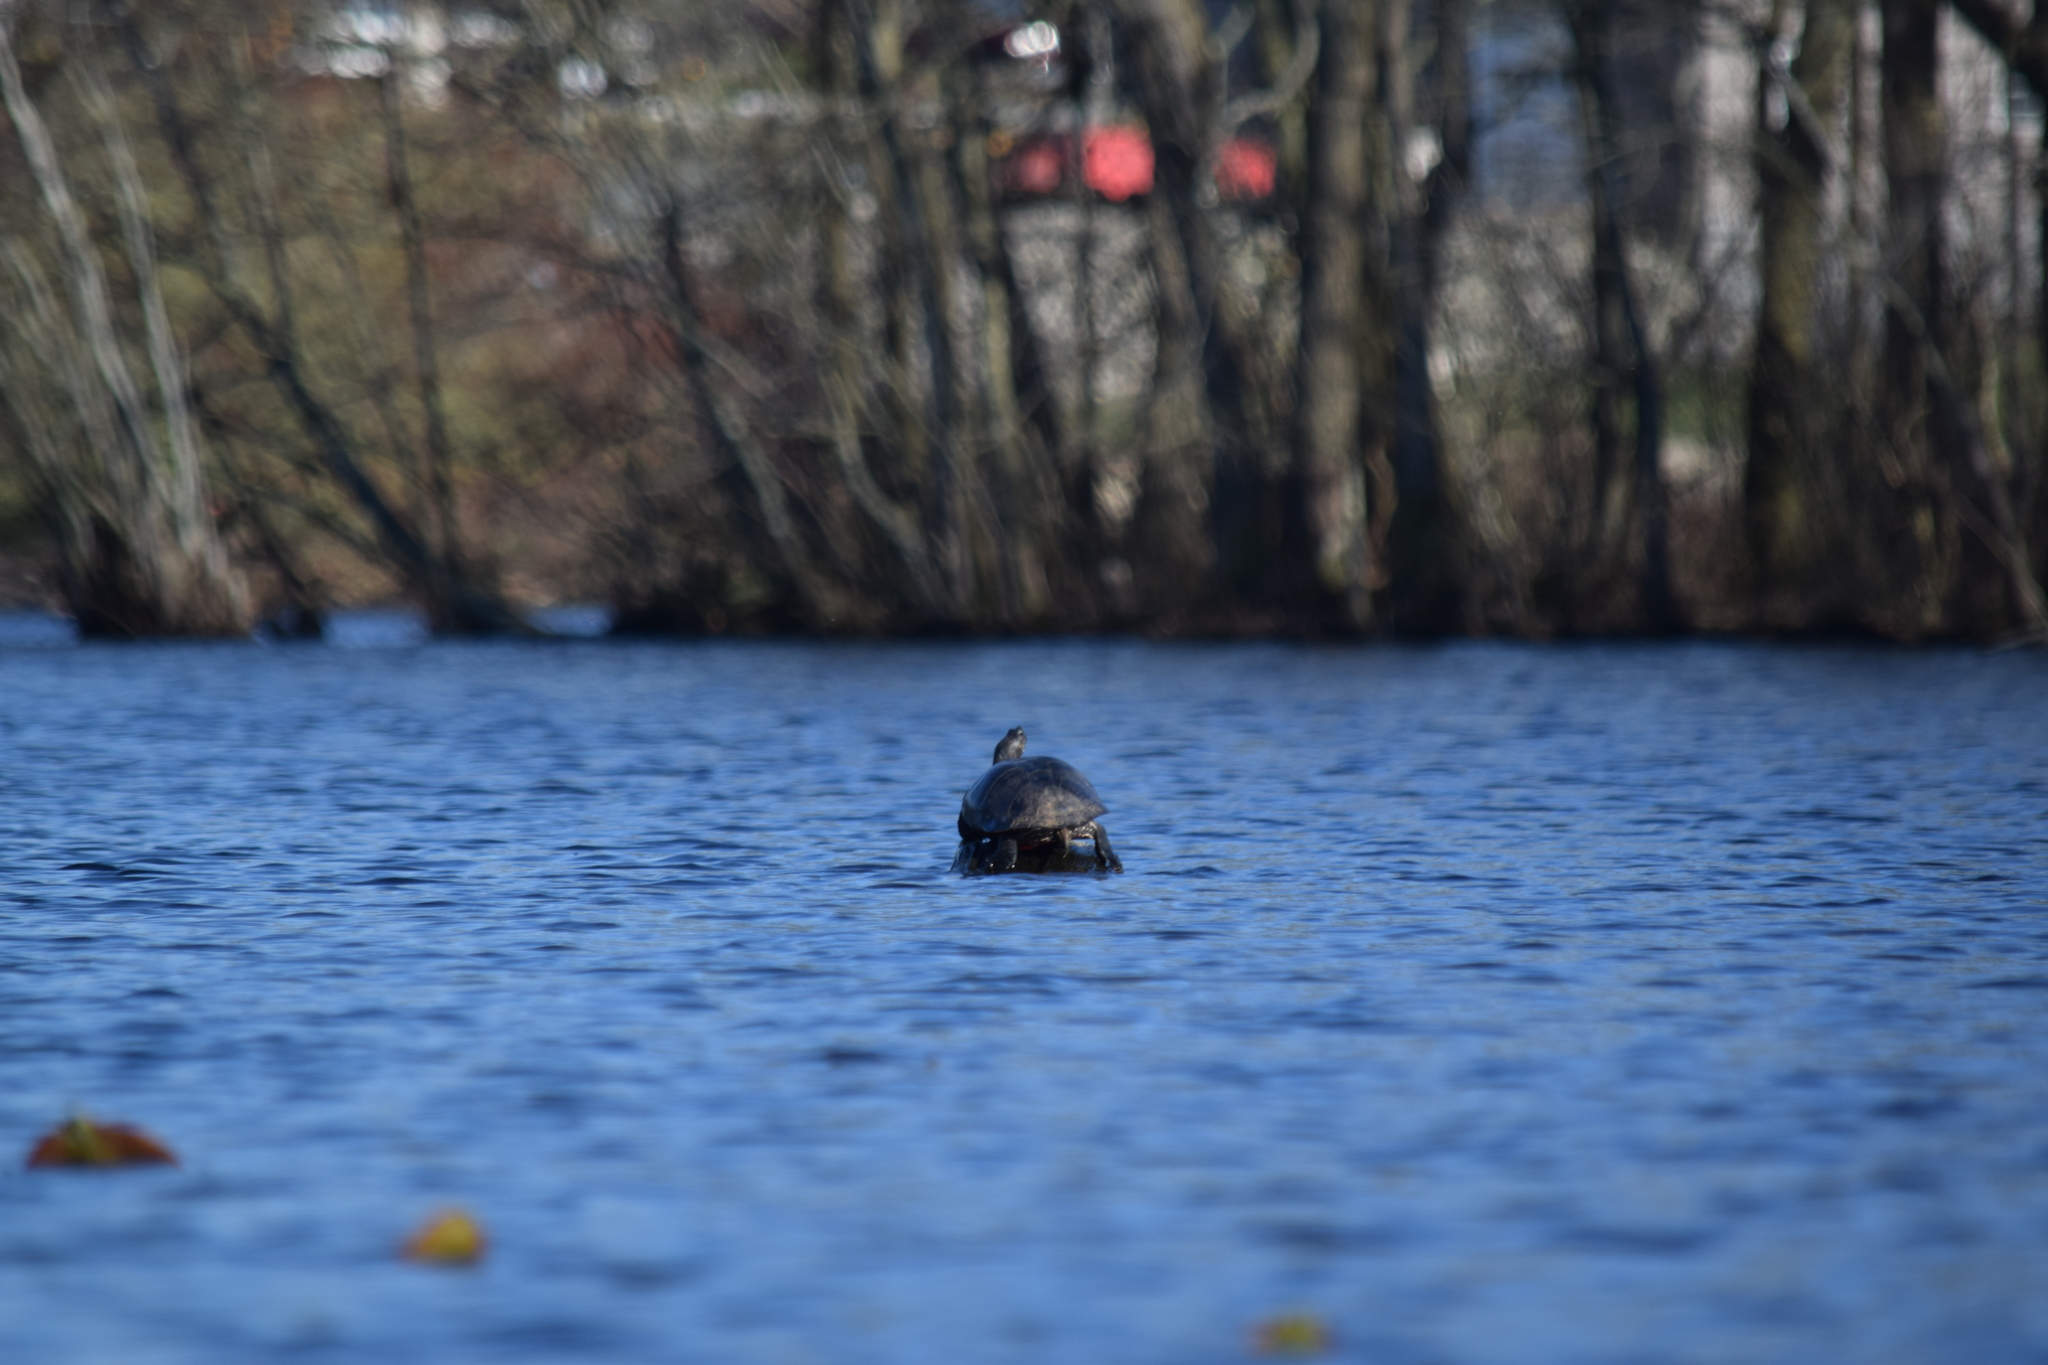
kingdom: Animalia
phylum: Chordata
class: Testudines
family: Emydidae
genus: Pseudemys
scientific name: Pseudemys rubriventris
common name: American red-bellied turtle
